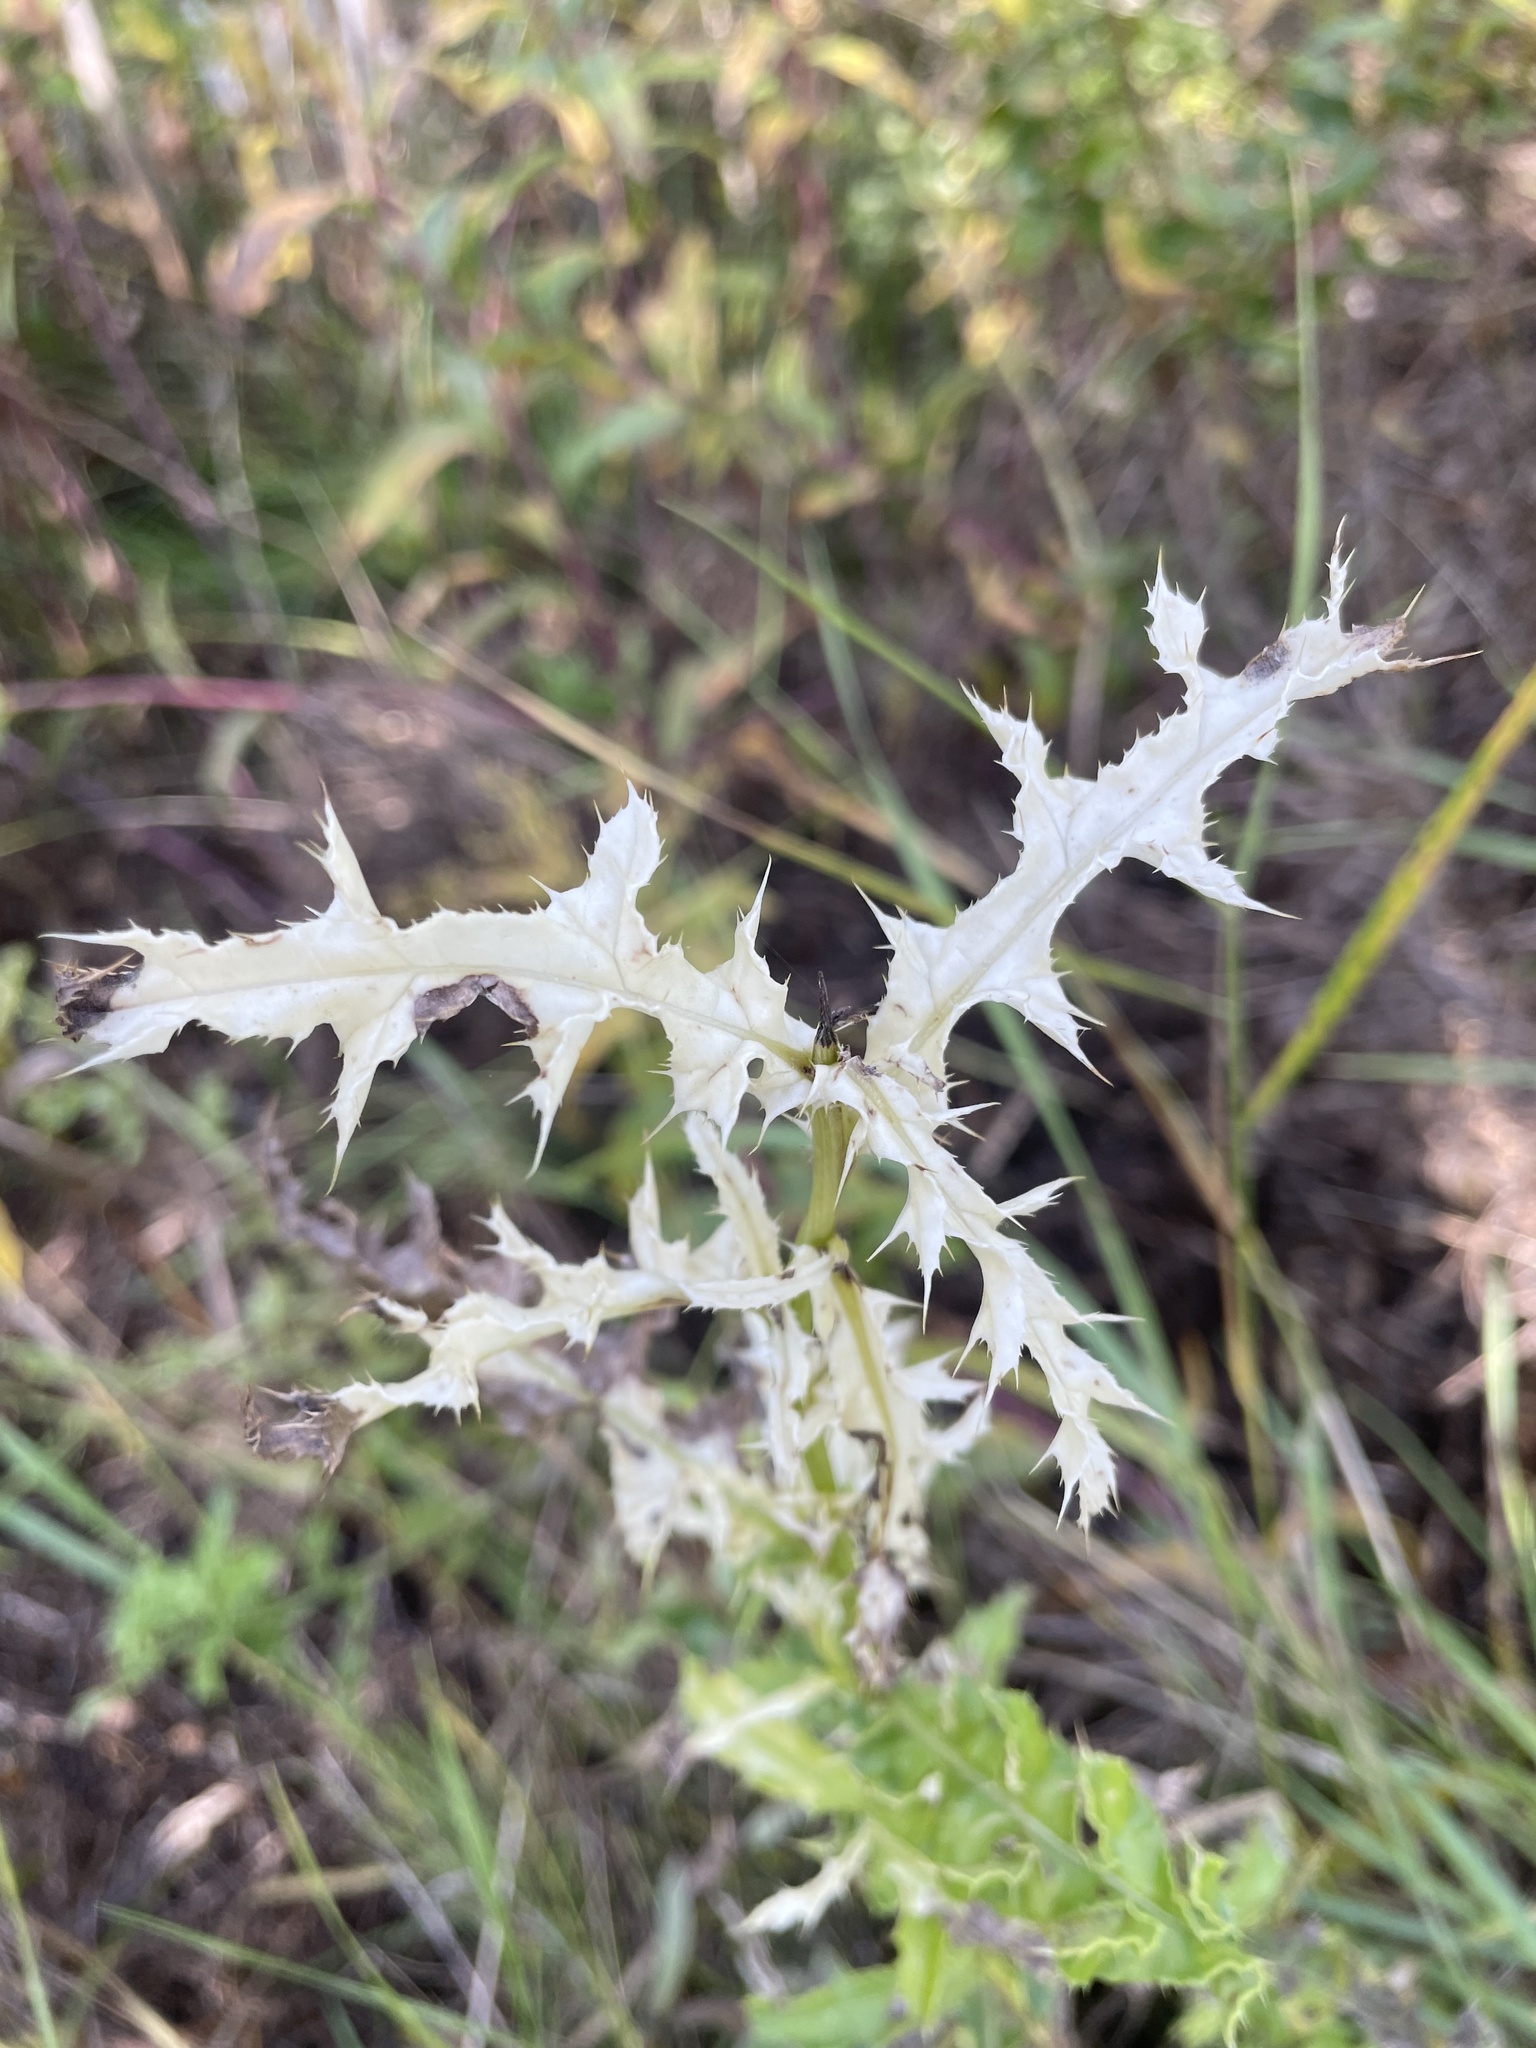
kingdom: Bacteria
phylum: Proteobacteria
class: Gammaproteobacteria
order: Pseudomonadales
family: Pseudomonadaceae
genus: Pseudomonas
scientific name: Pseudomonas syringae
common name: Bacterial speck
